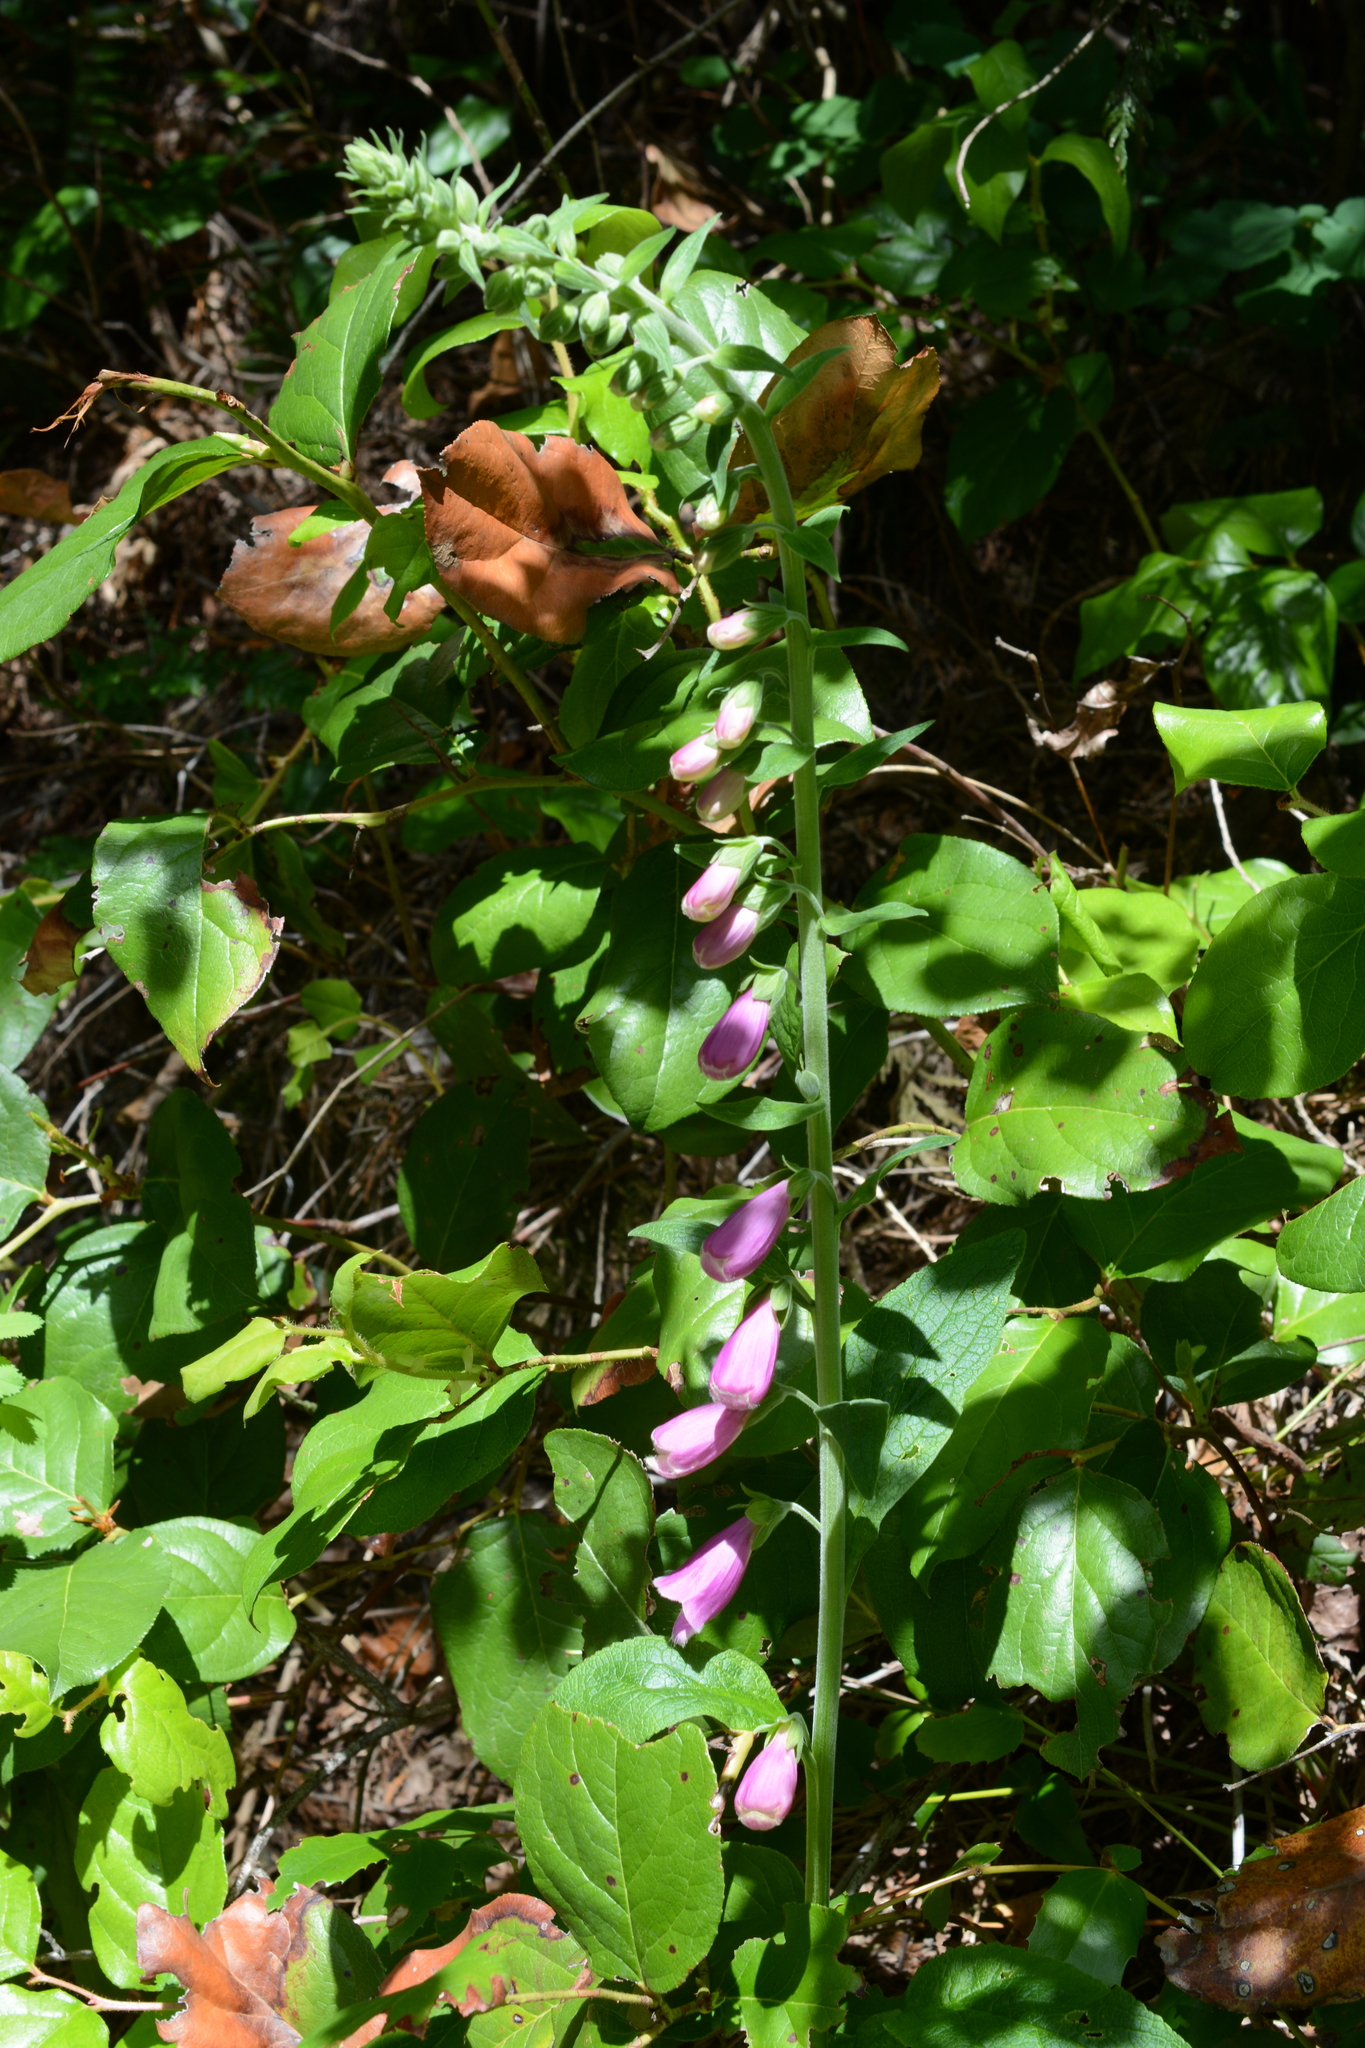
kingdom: Plantae
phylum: Tracheophyta
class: Magnoliopsida
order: Lamiales
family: Plantaginaceae
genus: Digitalis
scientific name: Digitalis purpurea
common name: Foxglove
